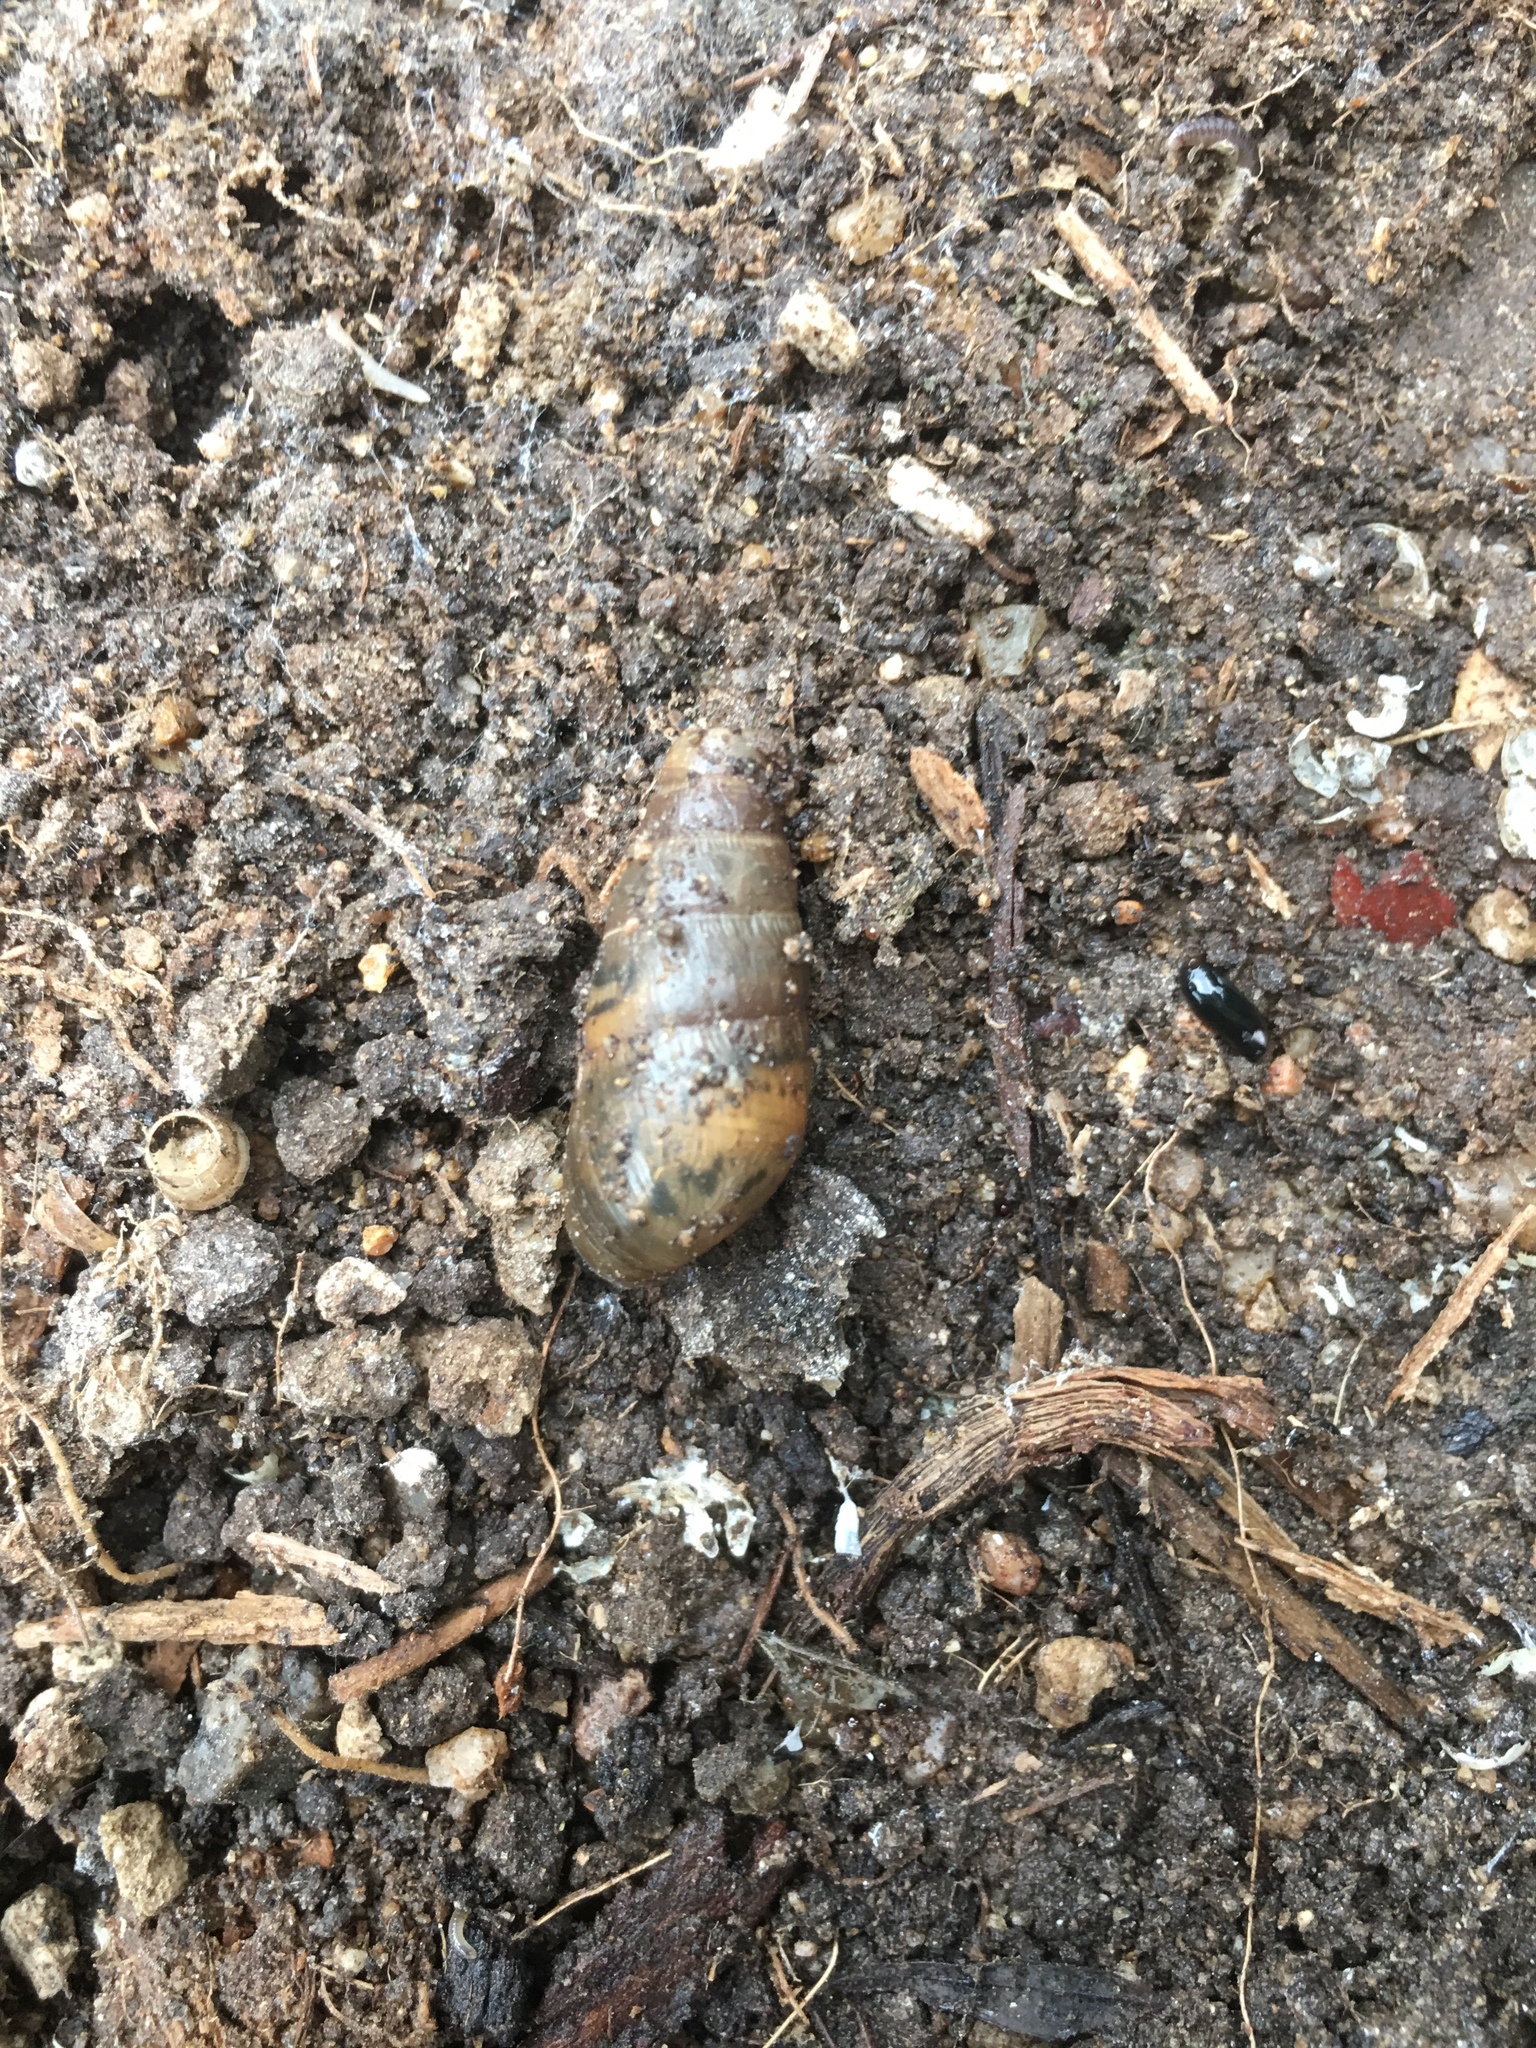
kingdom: Animalia
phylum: Mollusca
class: Gastropoda
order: Stylommatophora
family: Achatinidae
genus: Rumina
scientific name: Rumina decollata
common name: Decollate snail
